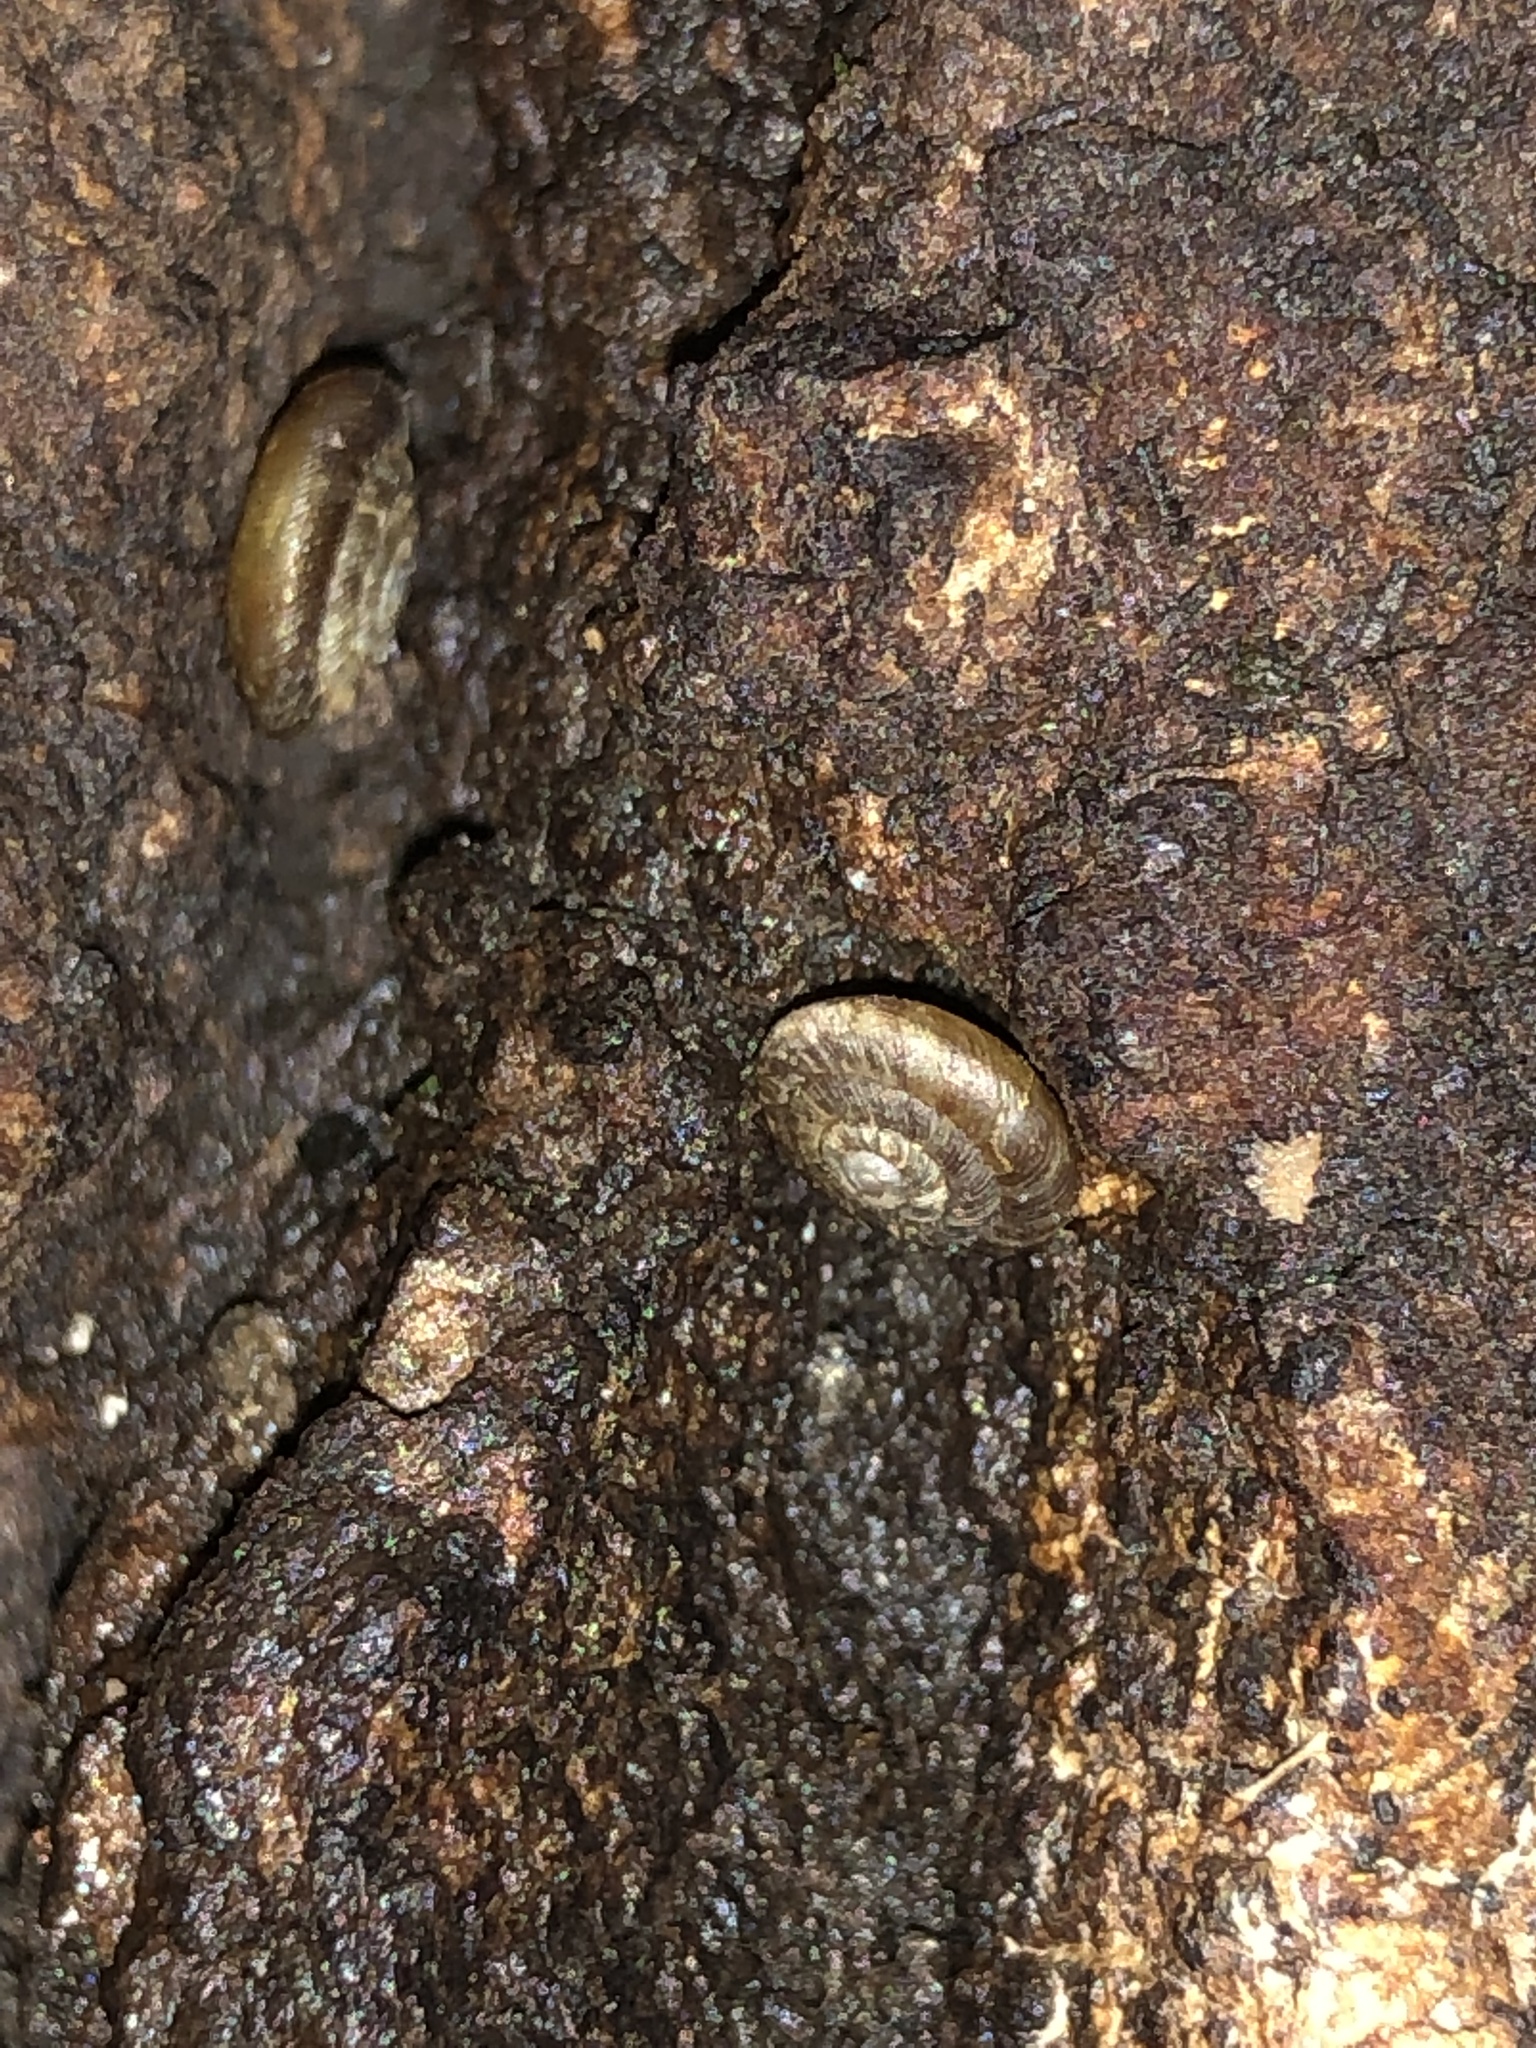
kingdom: Animalia
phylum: Mollusca
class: Gastropoda
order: Stylommatophora
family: Discidae
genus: Discus
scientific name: Discus rotundatus
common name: Rounded snail
